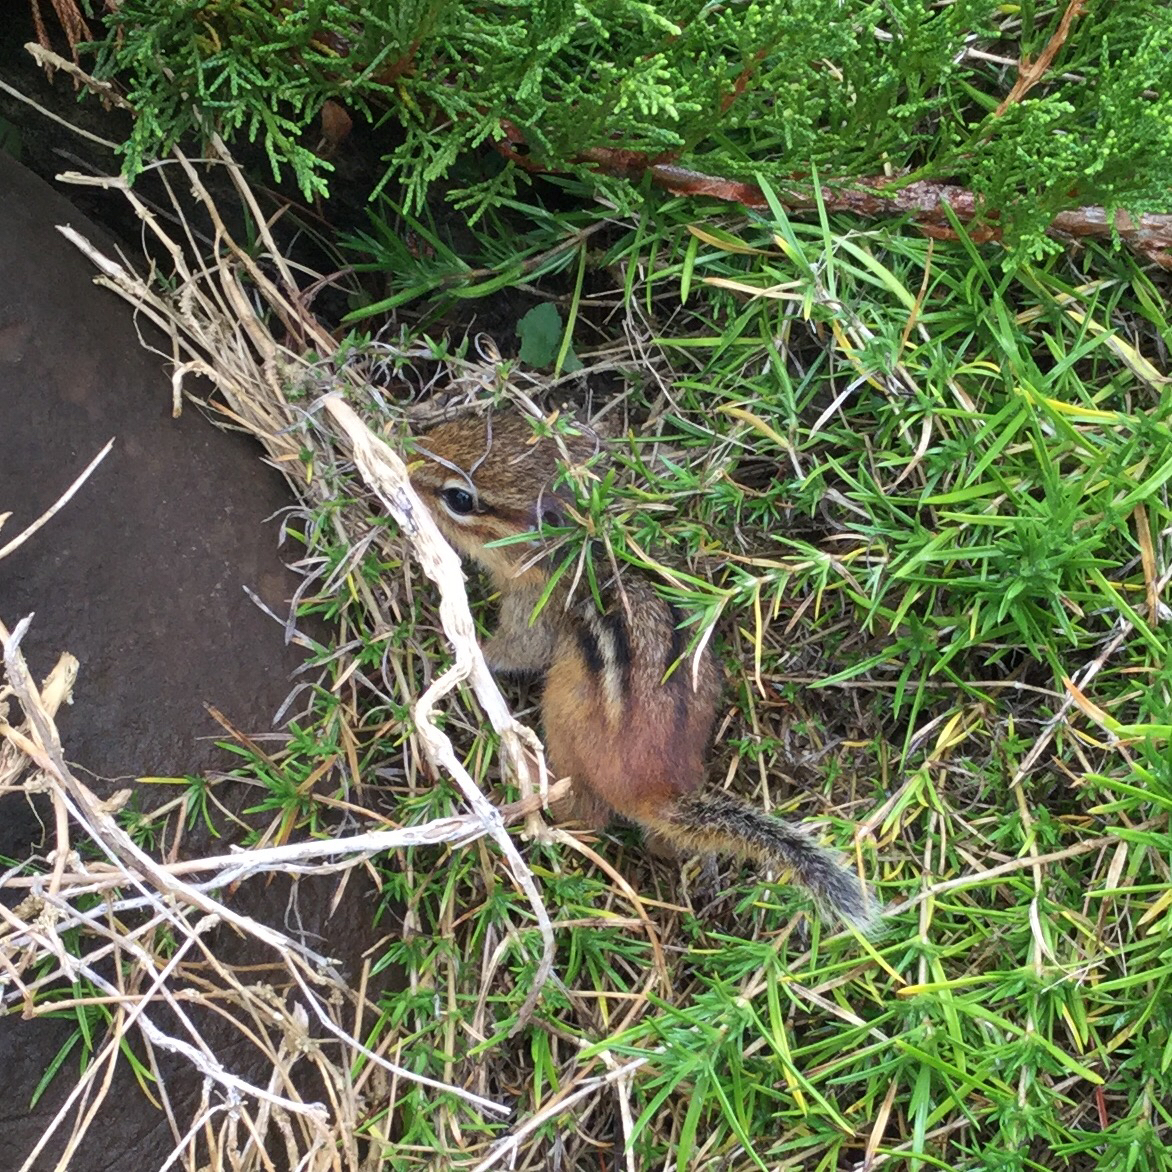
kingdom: Animalia
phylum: Chordata
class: Mammalia
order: Rodentia
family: Sciuridae
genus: Tamias
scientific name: Tamias striatus
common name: Eastern chipmunk
